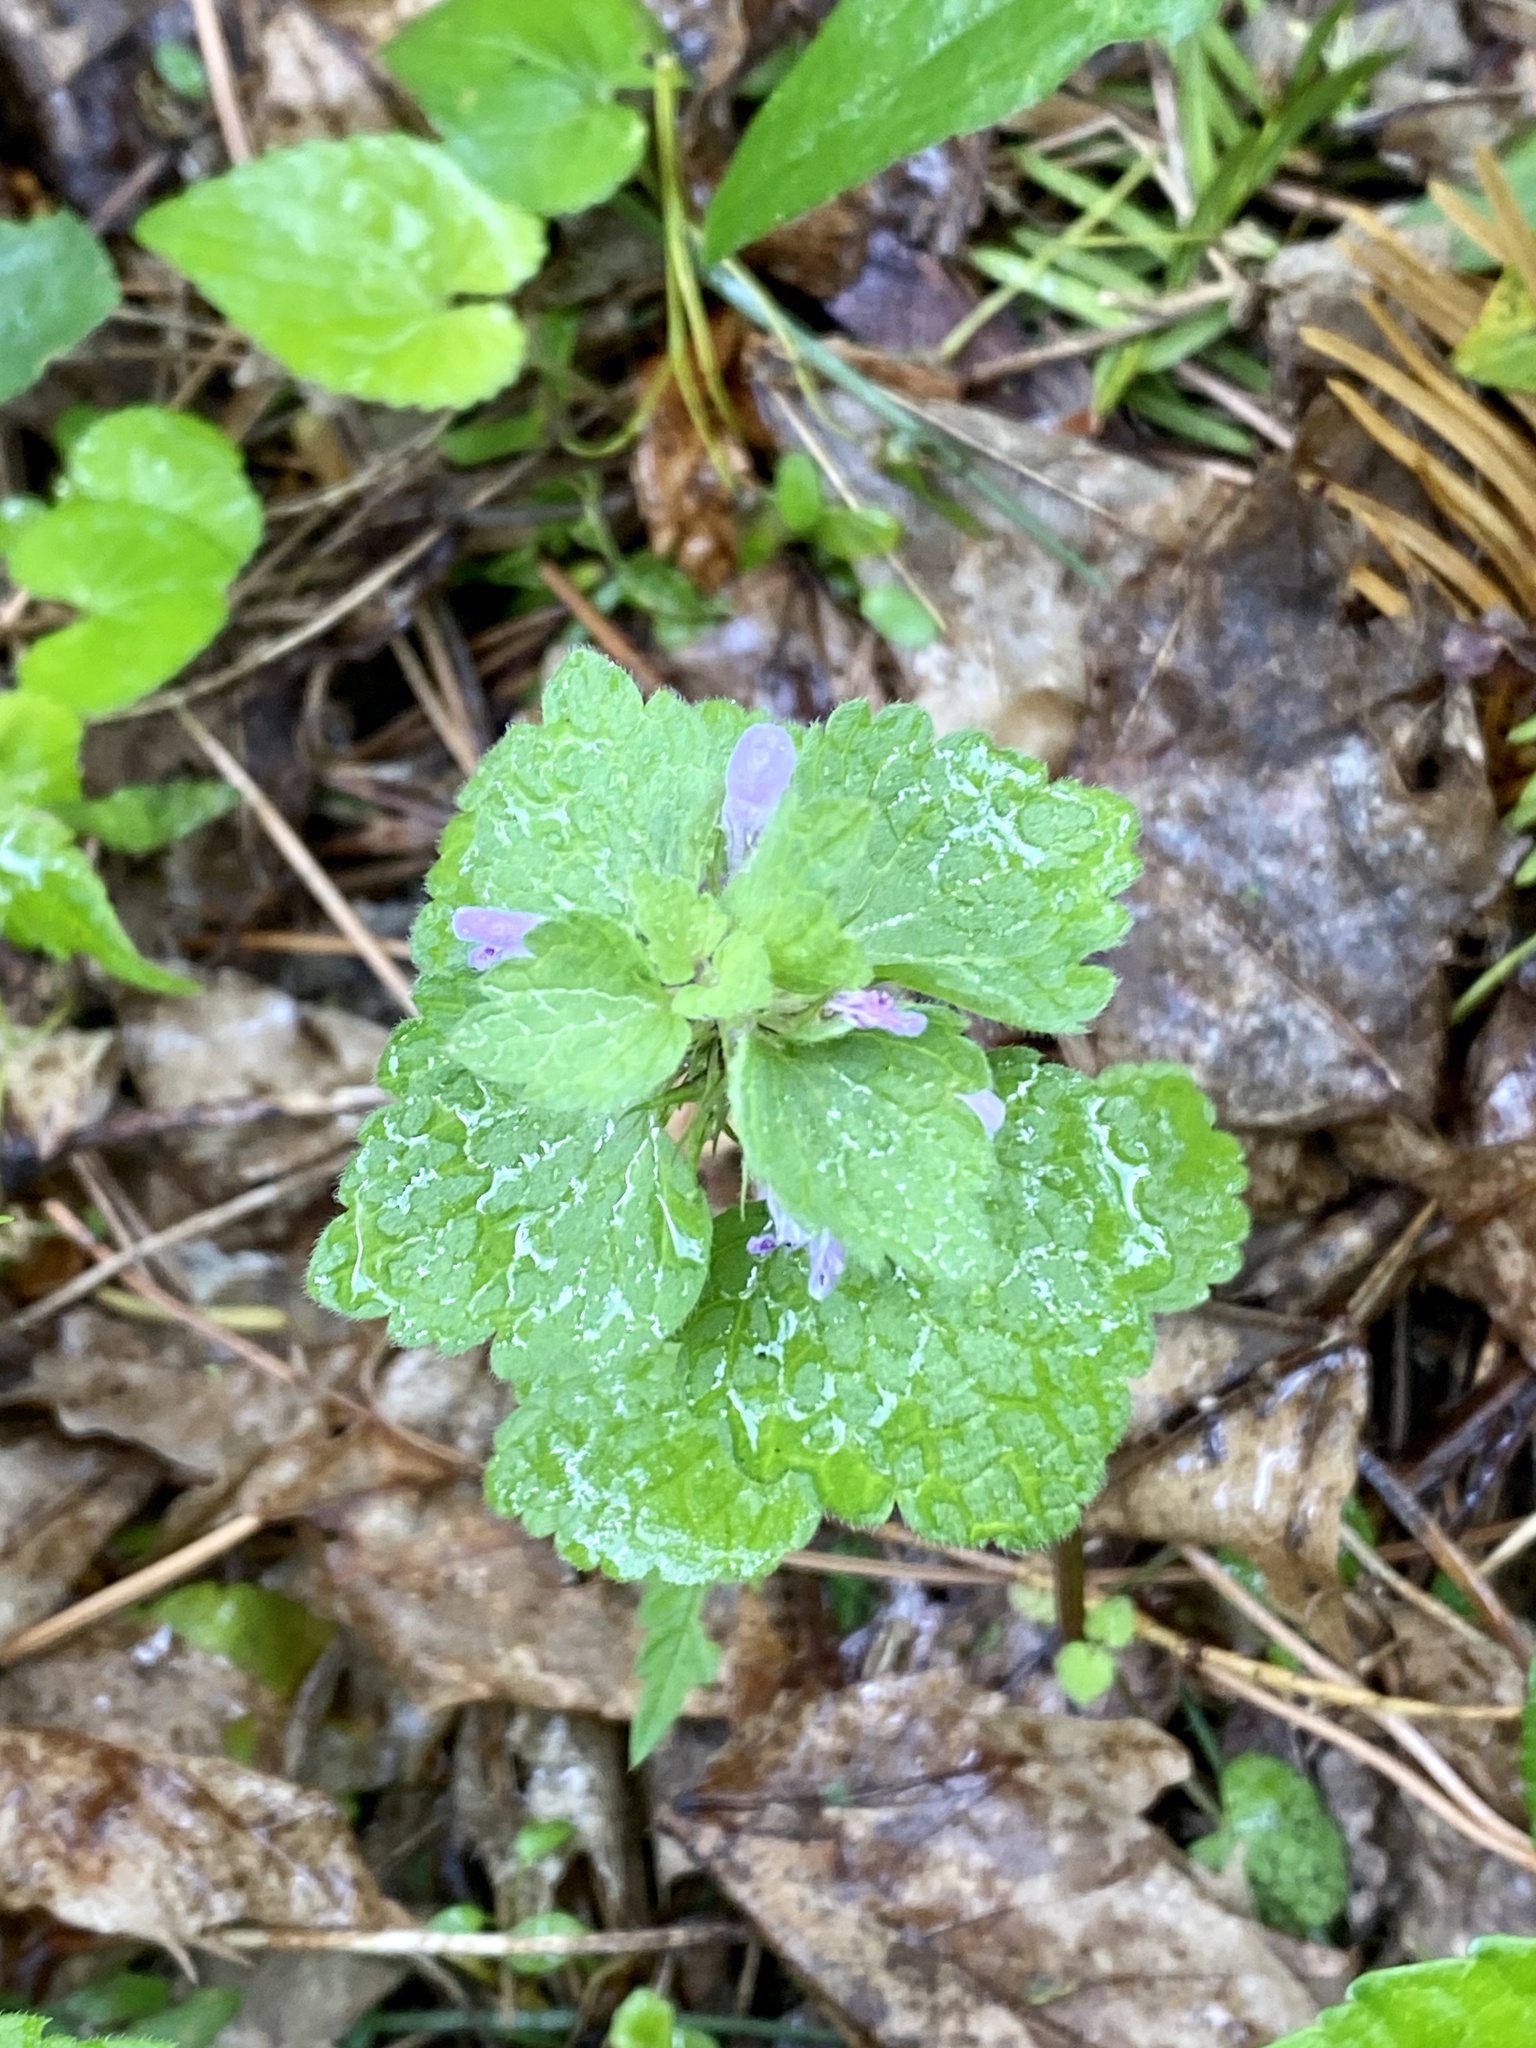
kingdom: Plantae
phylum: Tracheophyta
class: Magnoliopsida
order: Lamiales
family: Lamiaceae
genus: Lamium
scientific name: Lamium purpureum
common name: Red dead-nettle
